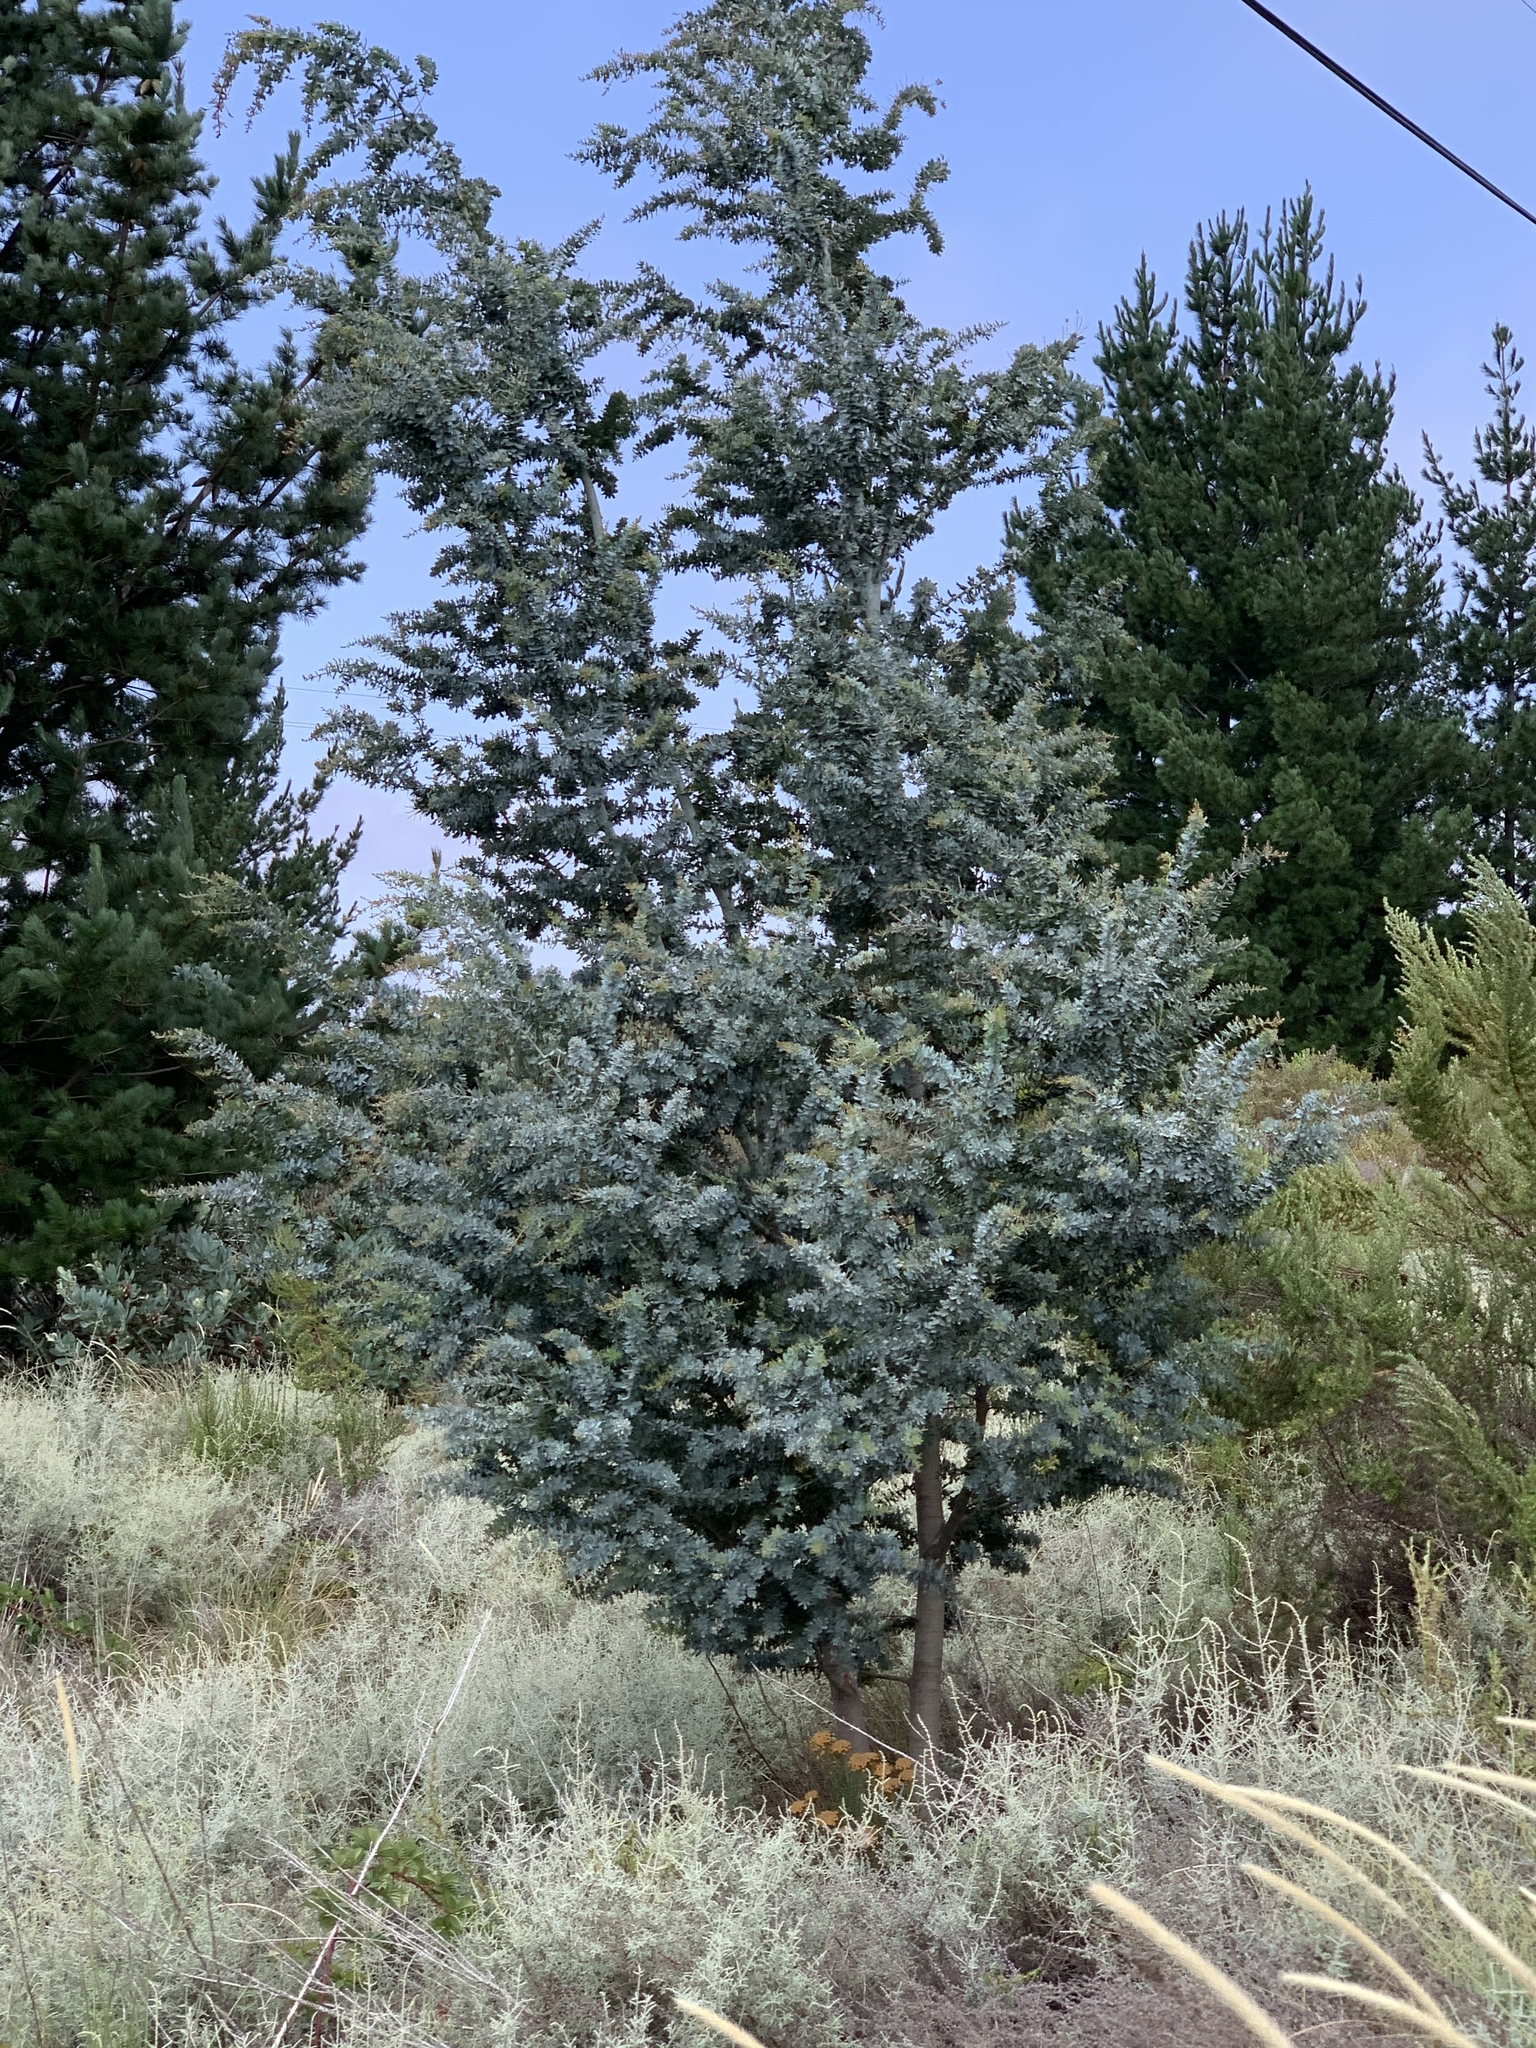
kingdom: Plantae
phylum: Tracheophyta
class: Magnoliopsida
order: Fabales
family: Fabaceae
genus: Acacia
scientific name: Acacia baileyana
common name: Cootamundra wattle
